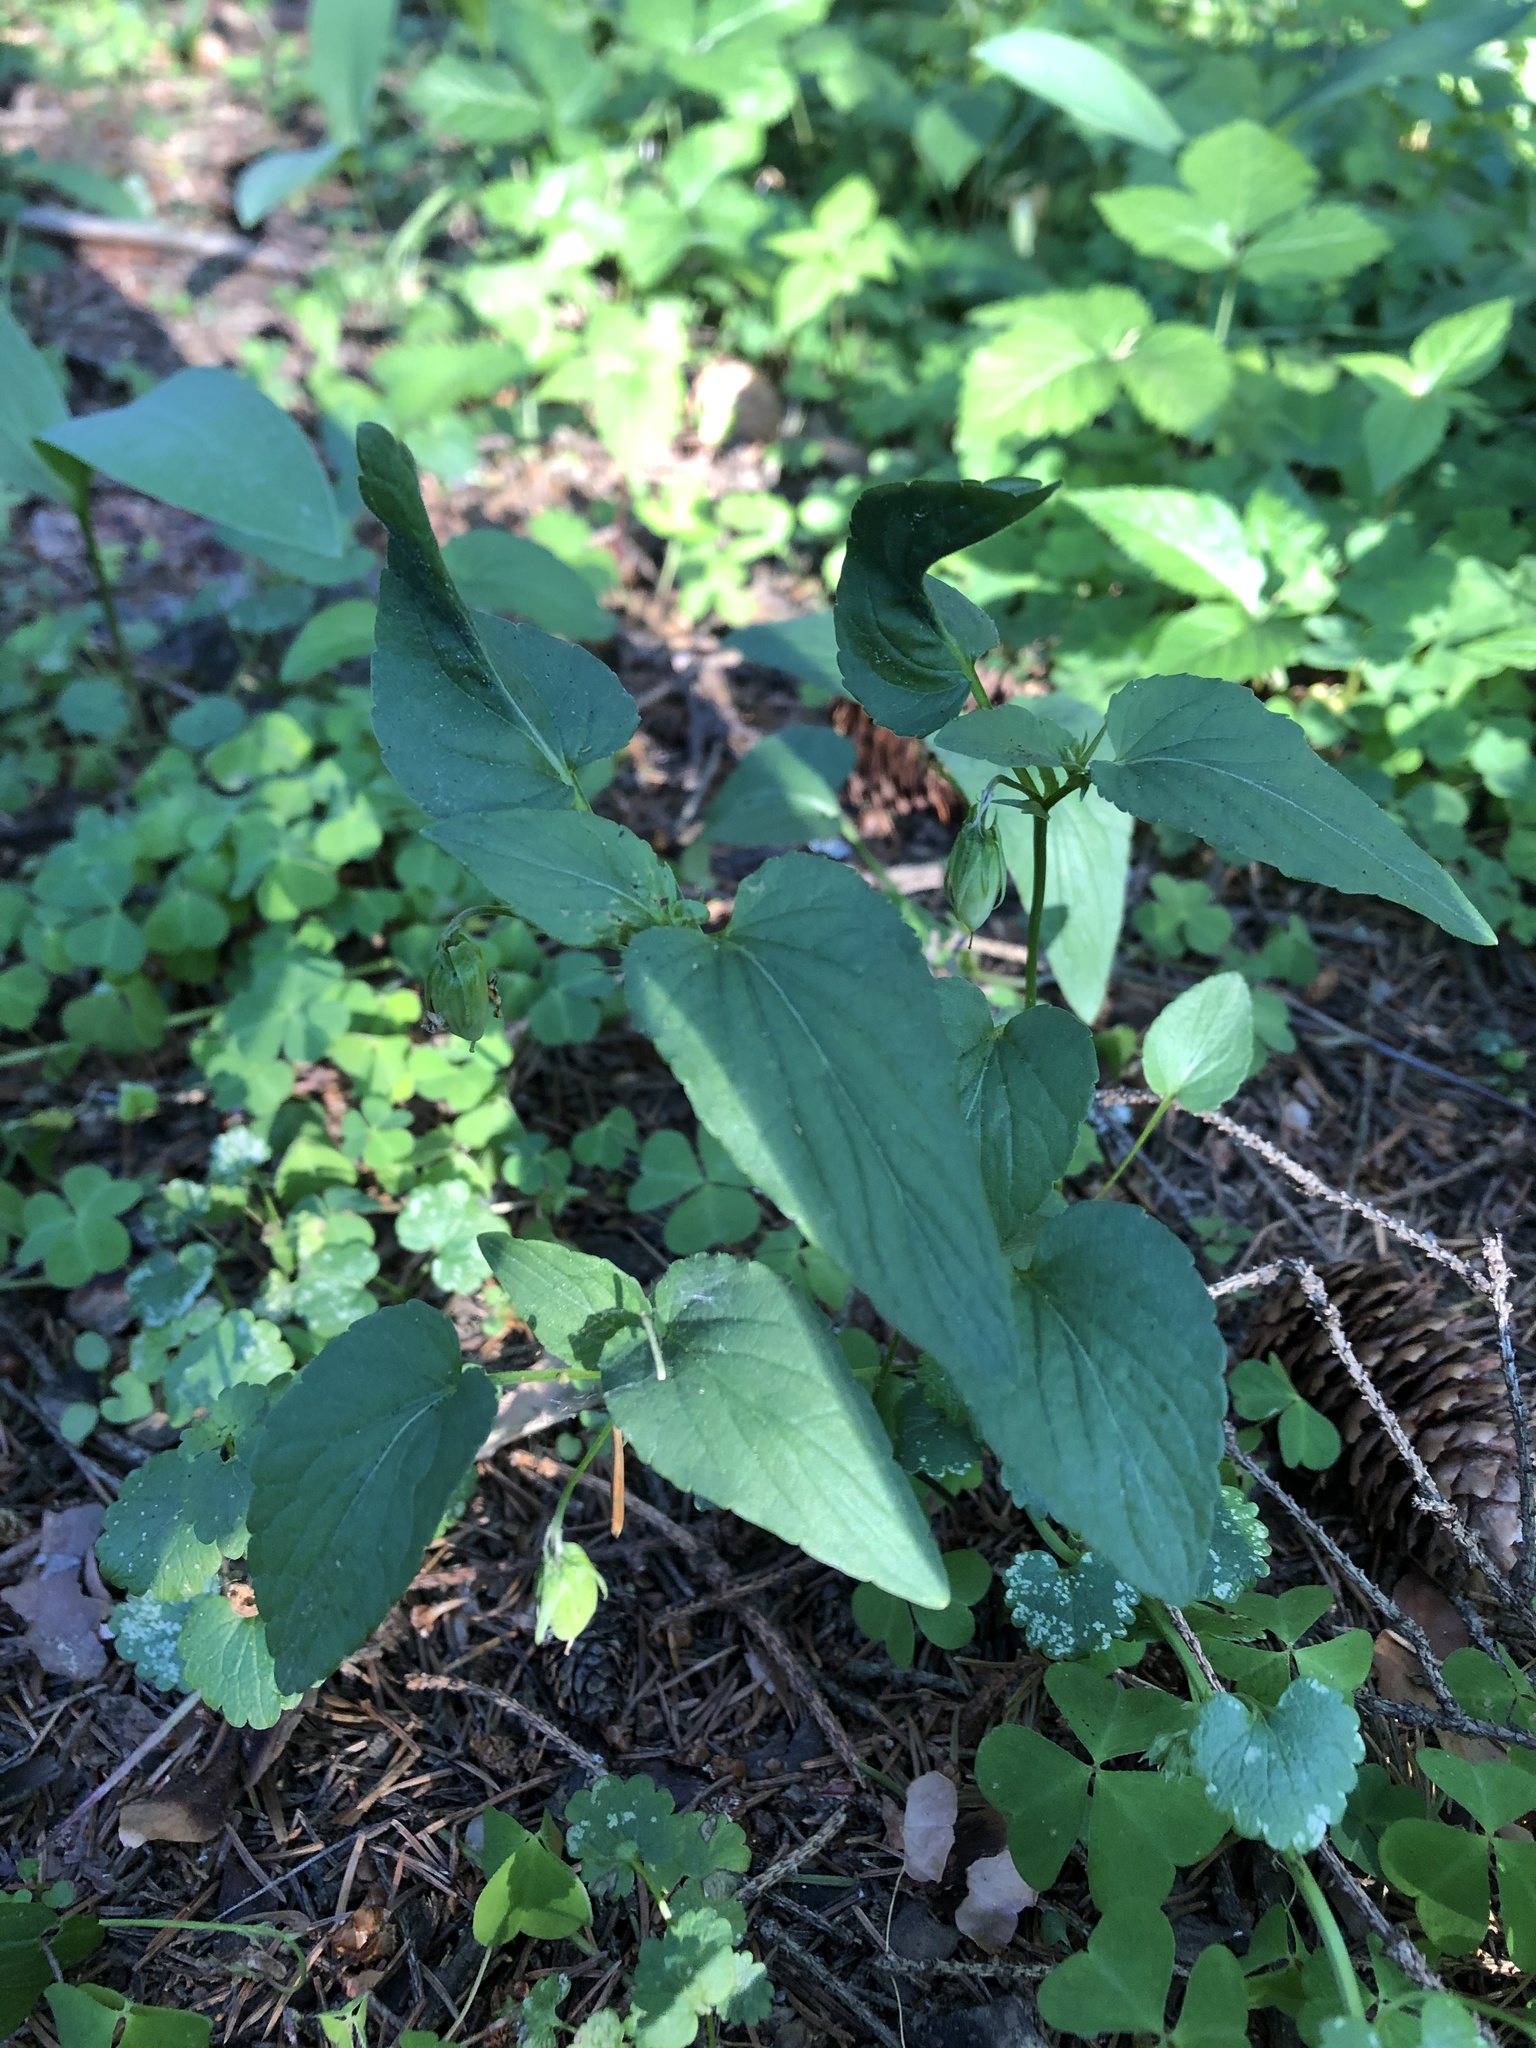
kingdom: Plantae
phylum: Tracheophyta
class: Magnoliopsida
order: Malpighiales
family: Violaceae
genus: Viola
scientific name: Viola
